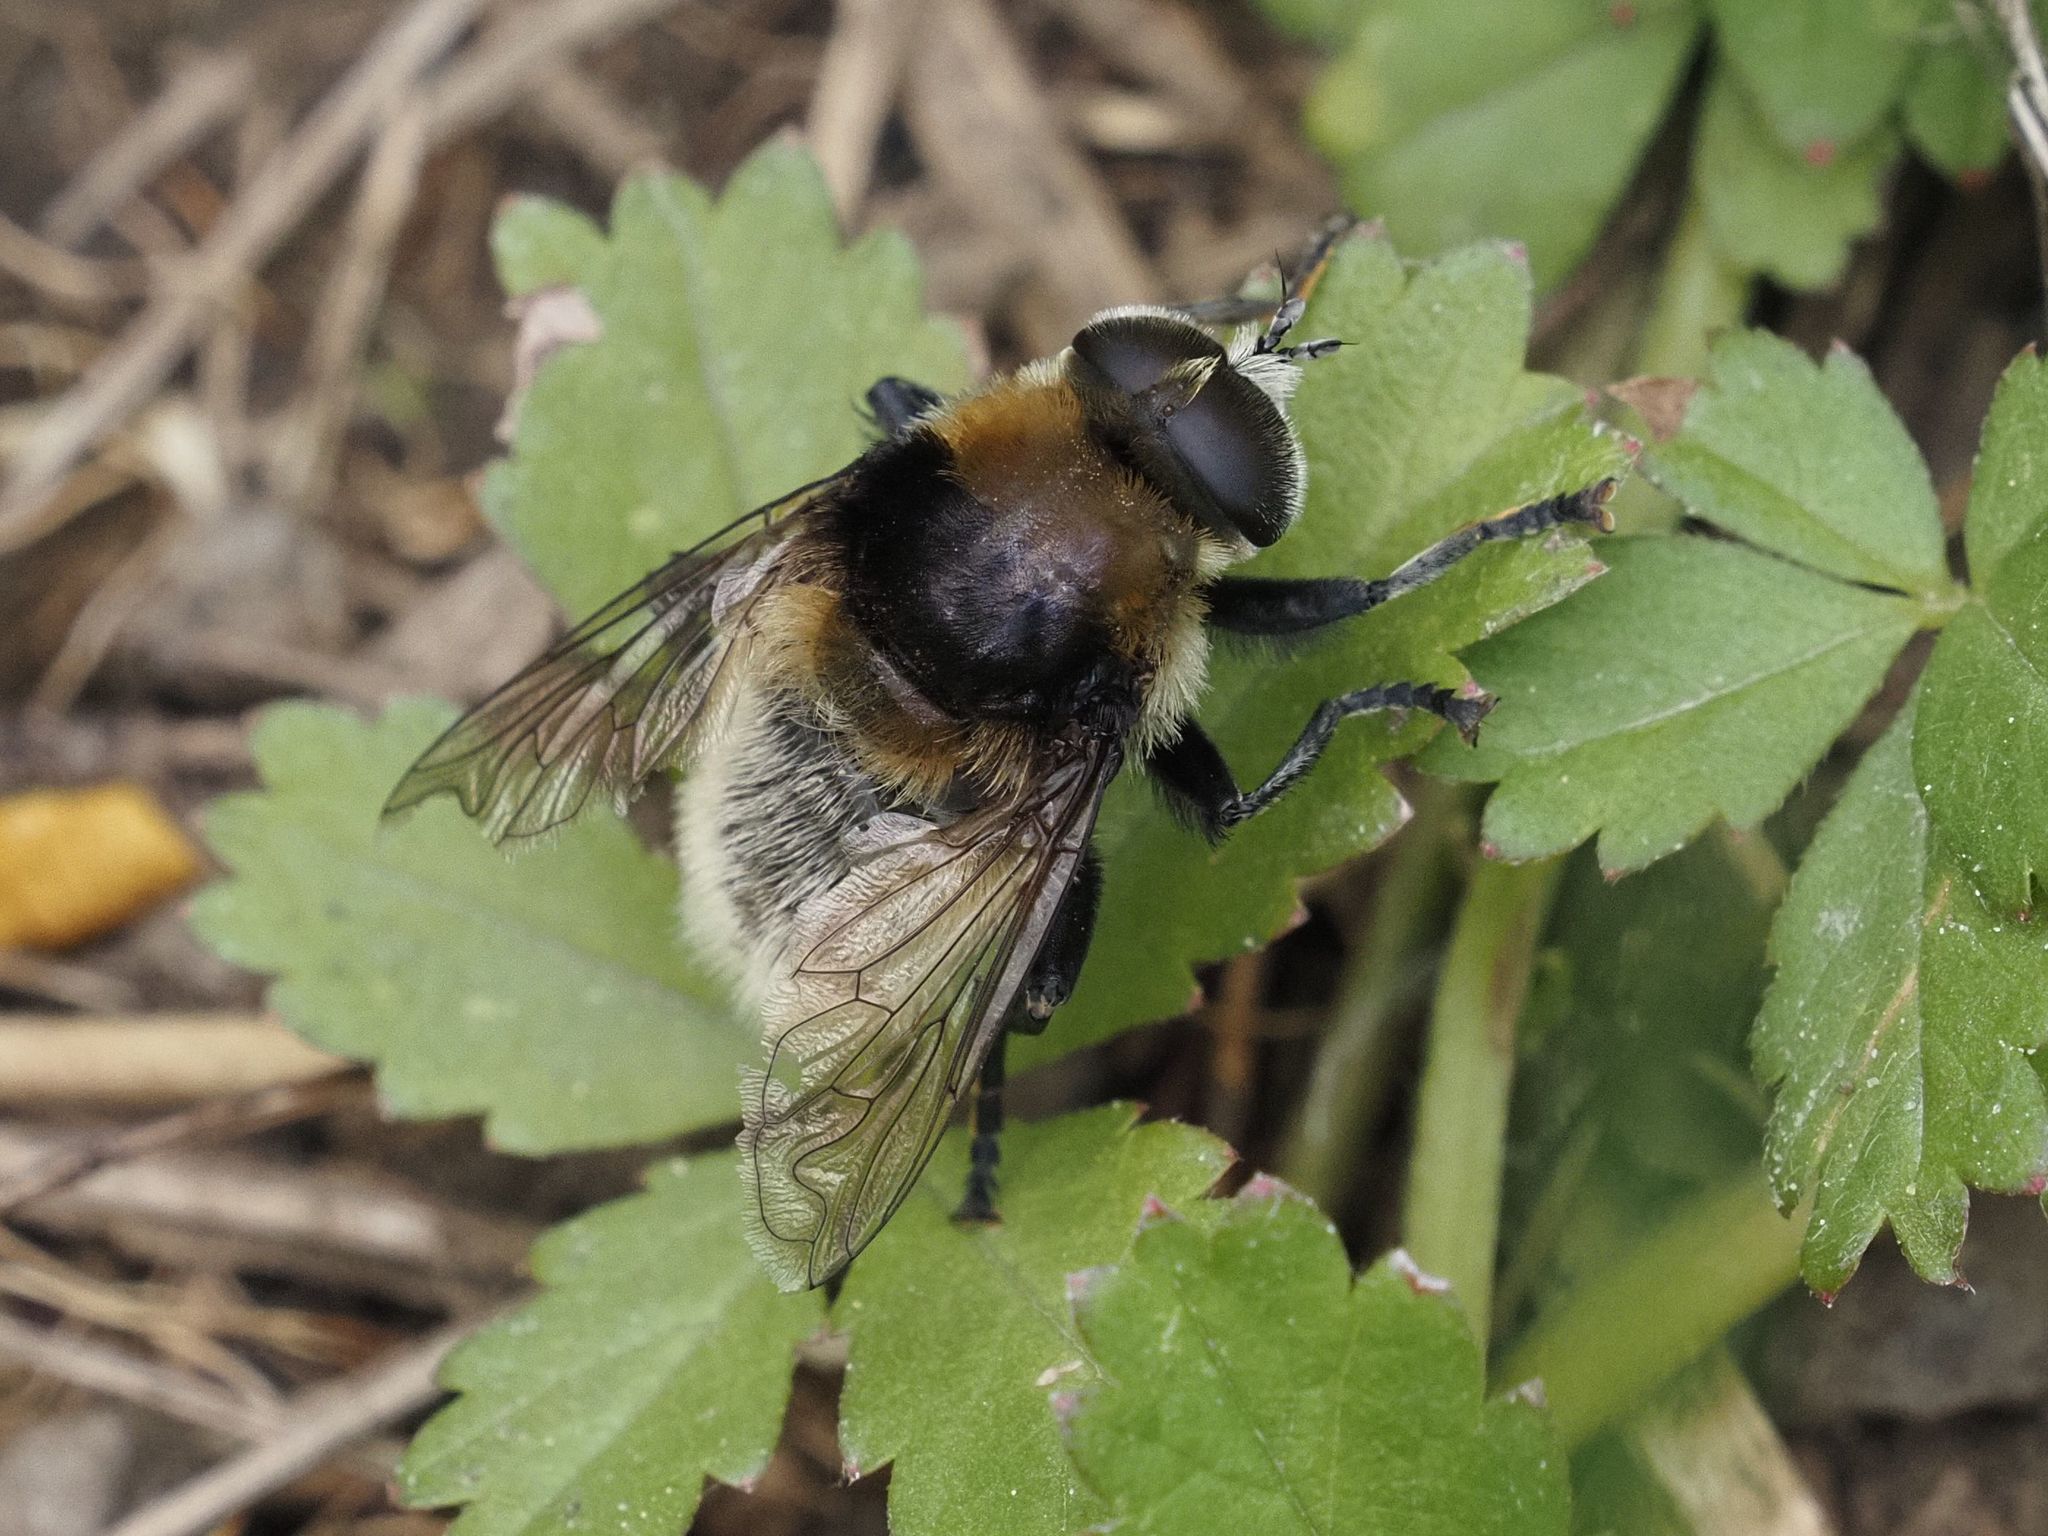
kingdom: Animalia
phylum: Arthropoda
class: Insecta
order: Diptera
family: Syrphidae
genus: Merodon
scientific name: Merodon equestris
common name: Greater bulb-fly
